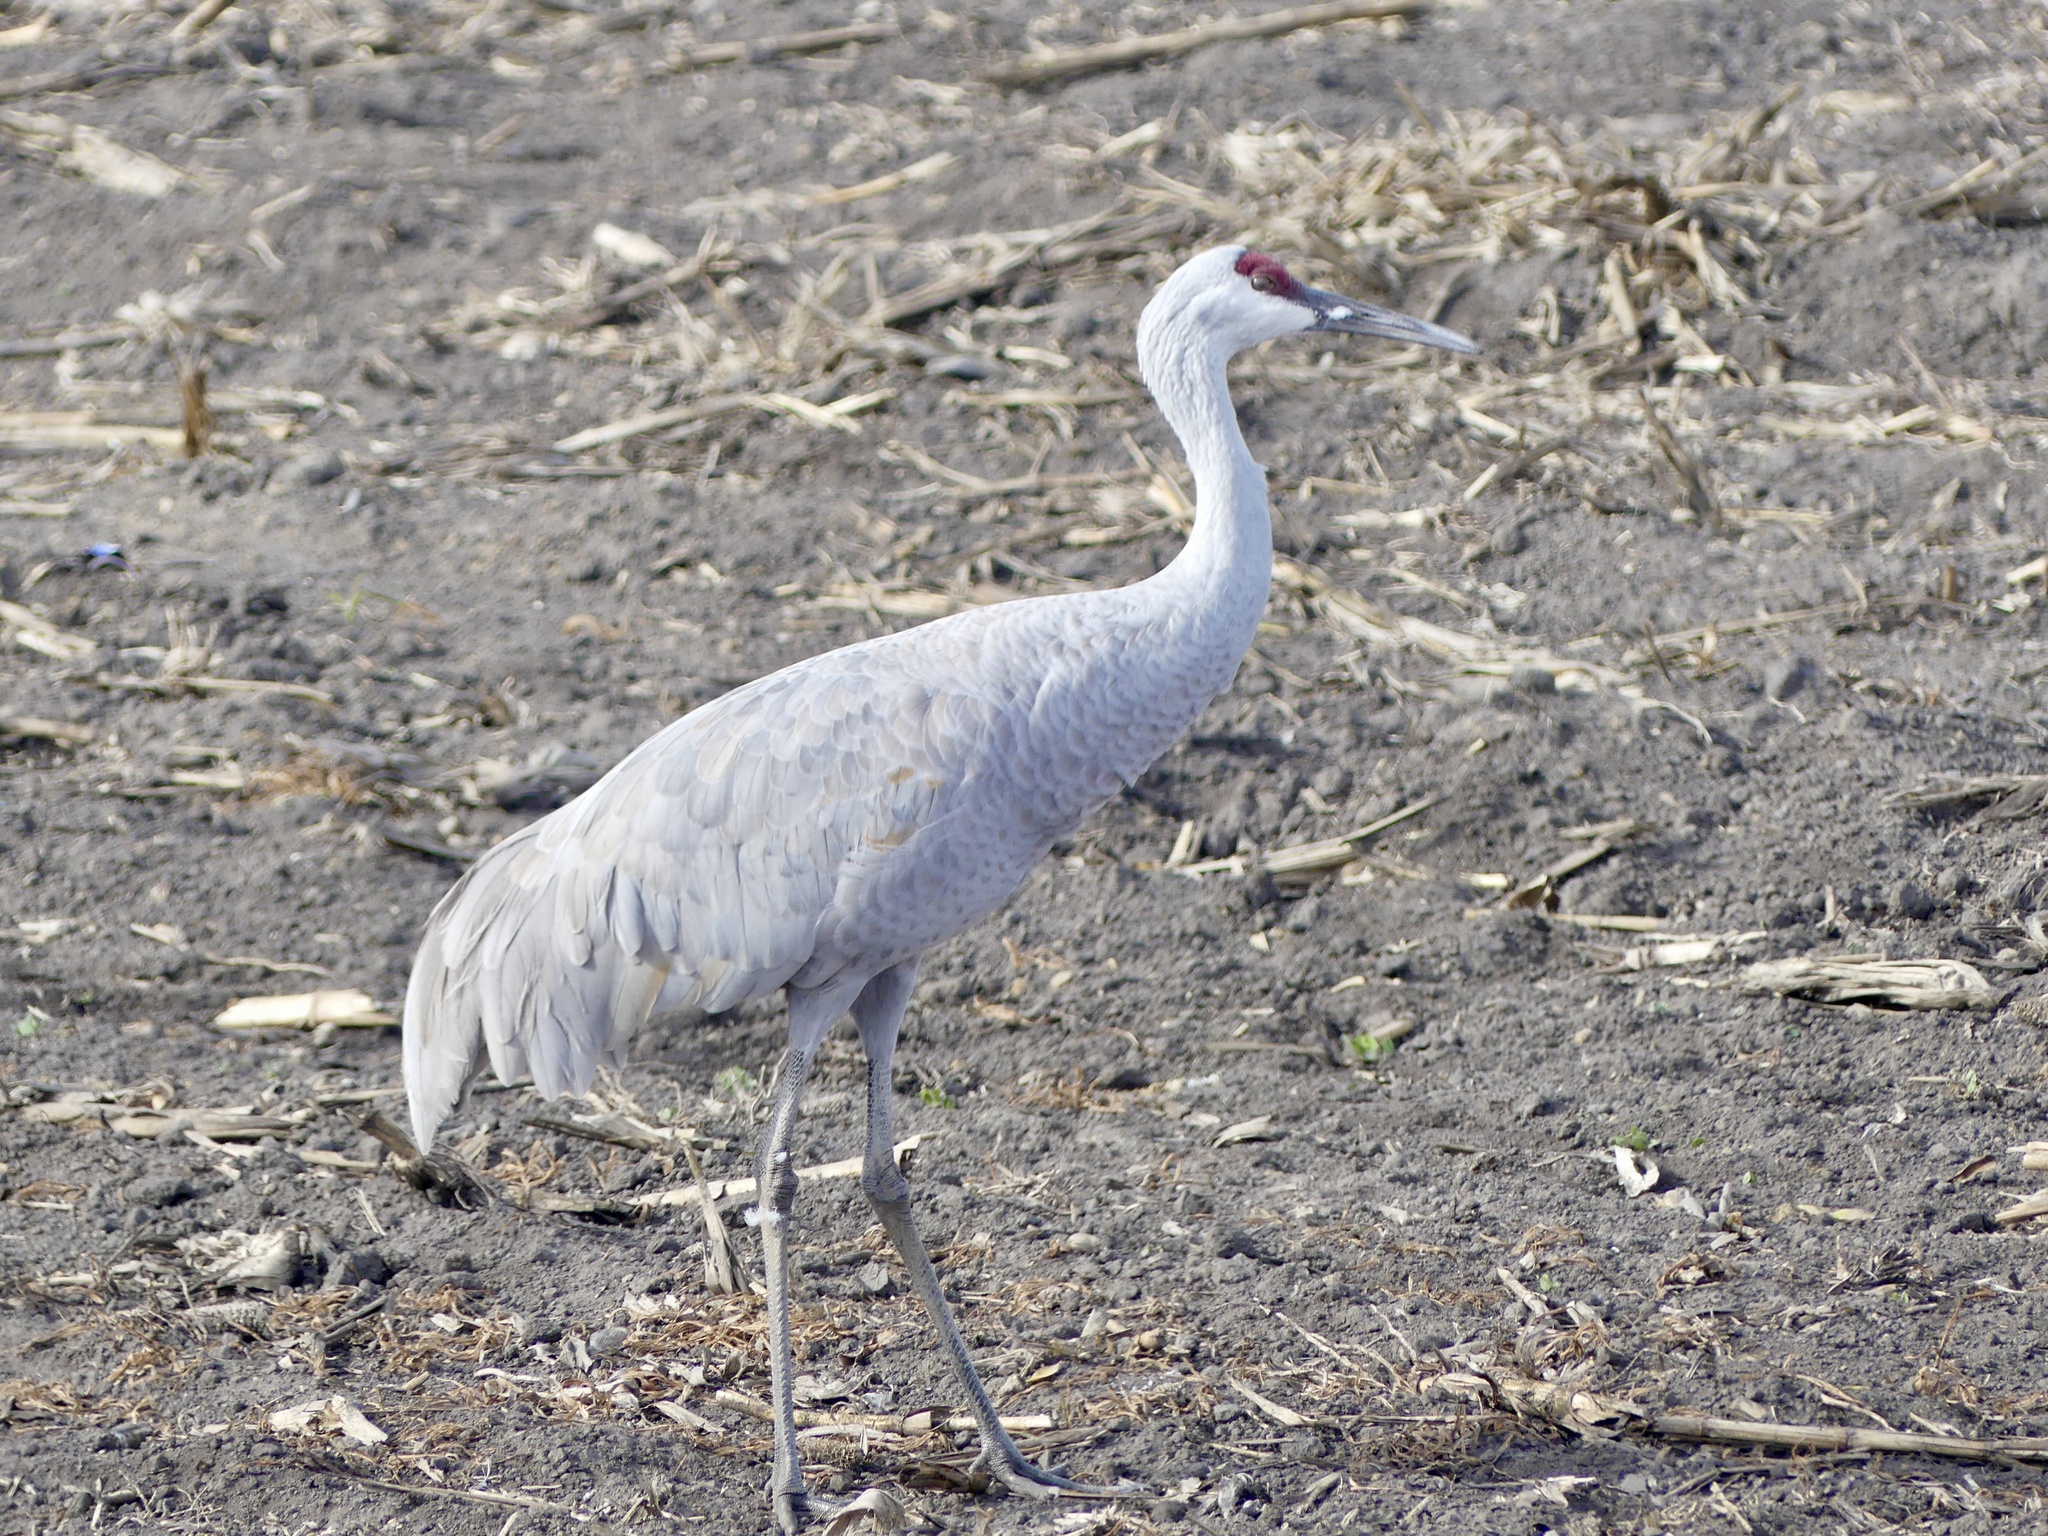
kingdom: Animalia
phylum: Chordata
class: Aves
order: Gruiformes
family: Gruidae
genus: Grus
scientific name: Grus canadensis
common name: Sandhill crane
